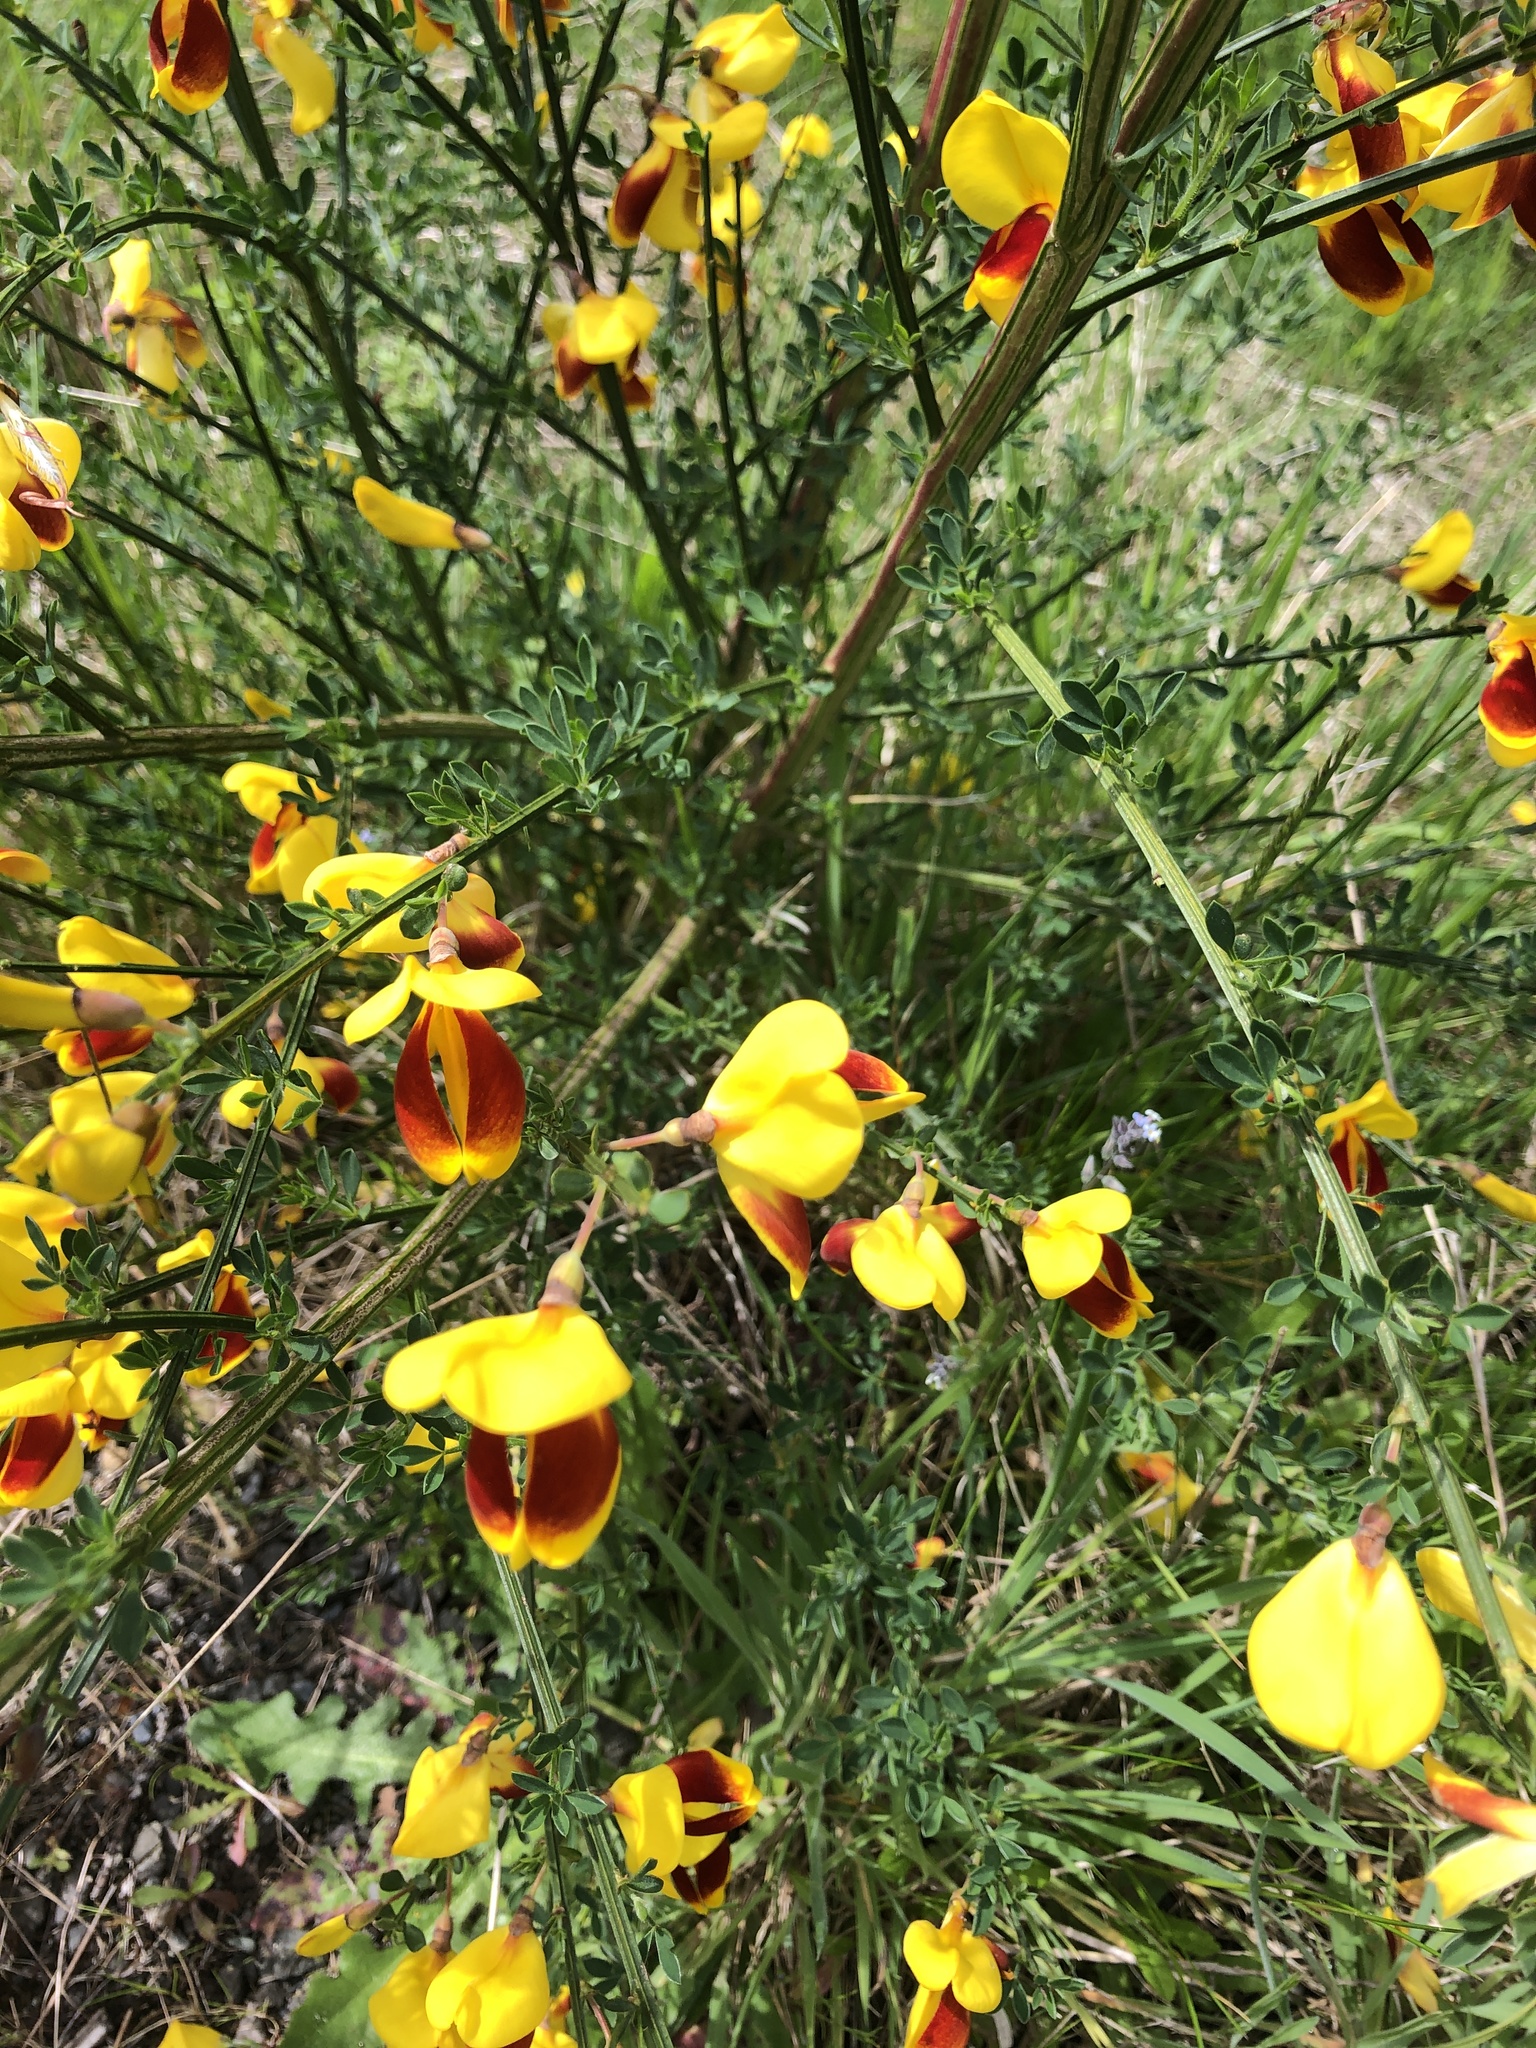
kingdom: Plantae
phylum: Tracheophyta
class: Magnoliopsida
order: Fabales
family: Fabaceae
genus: Cytisus
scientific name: Cytisus scoparius
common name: Scotch broom
